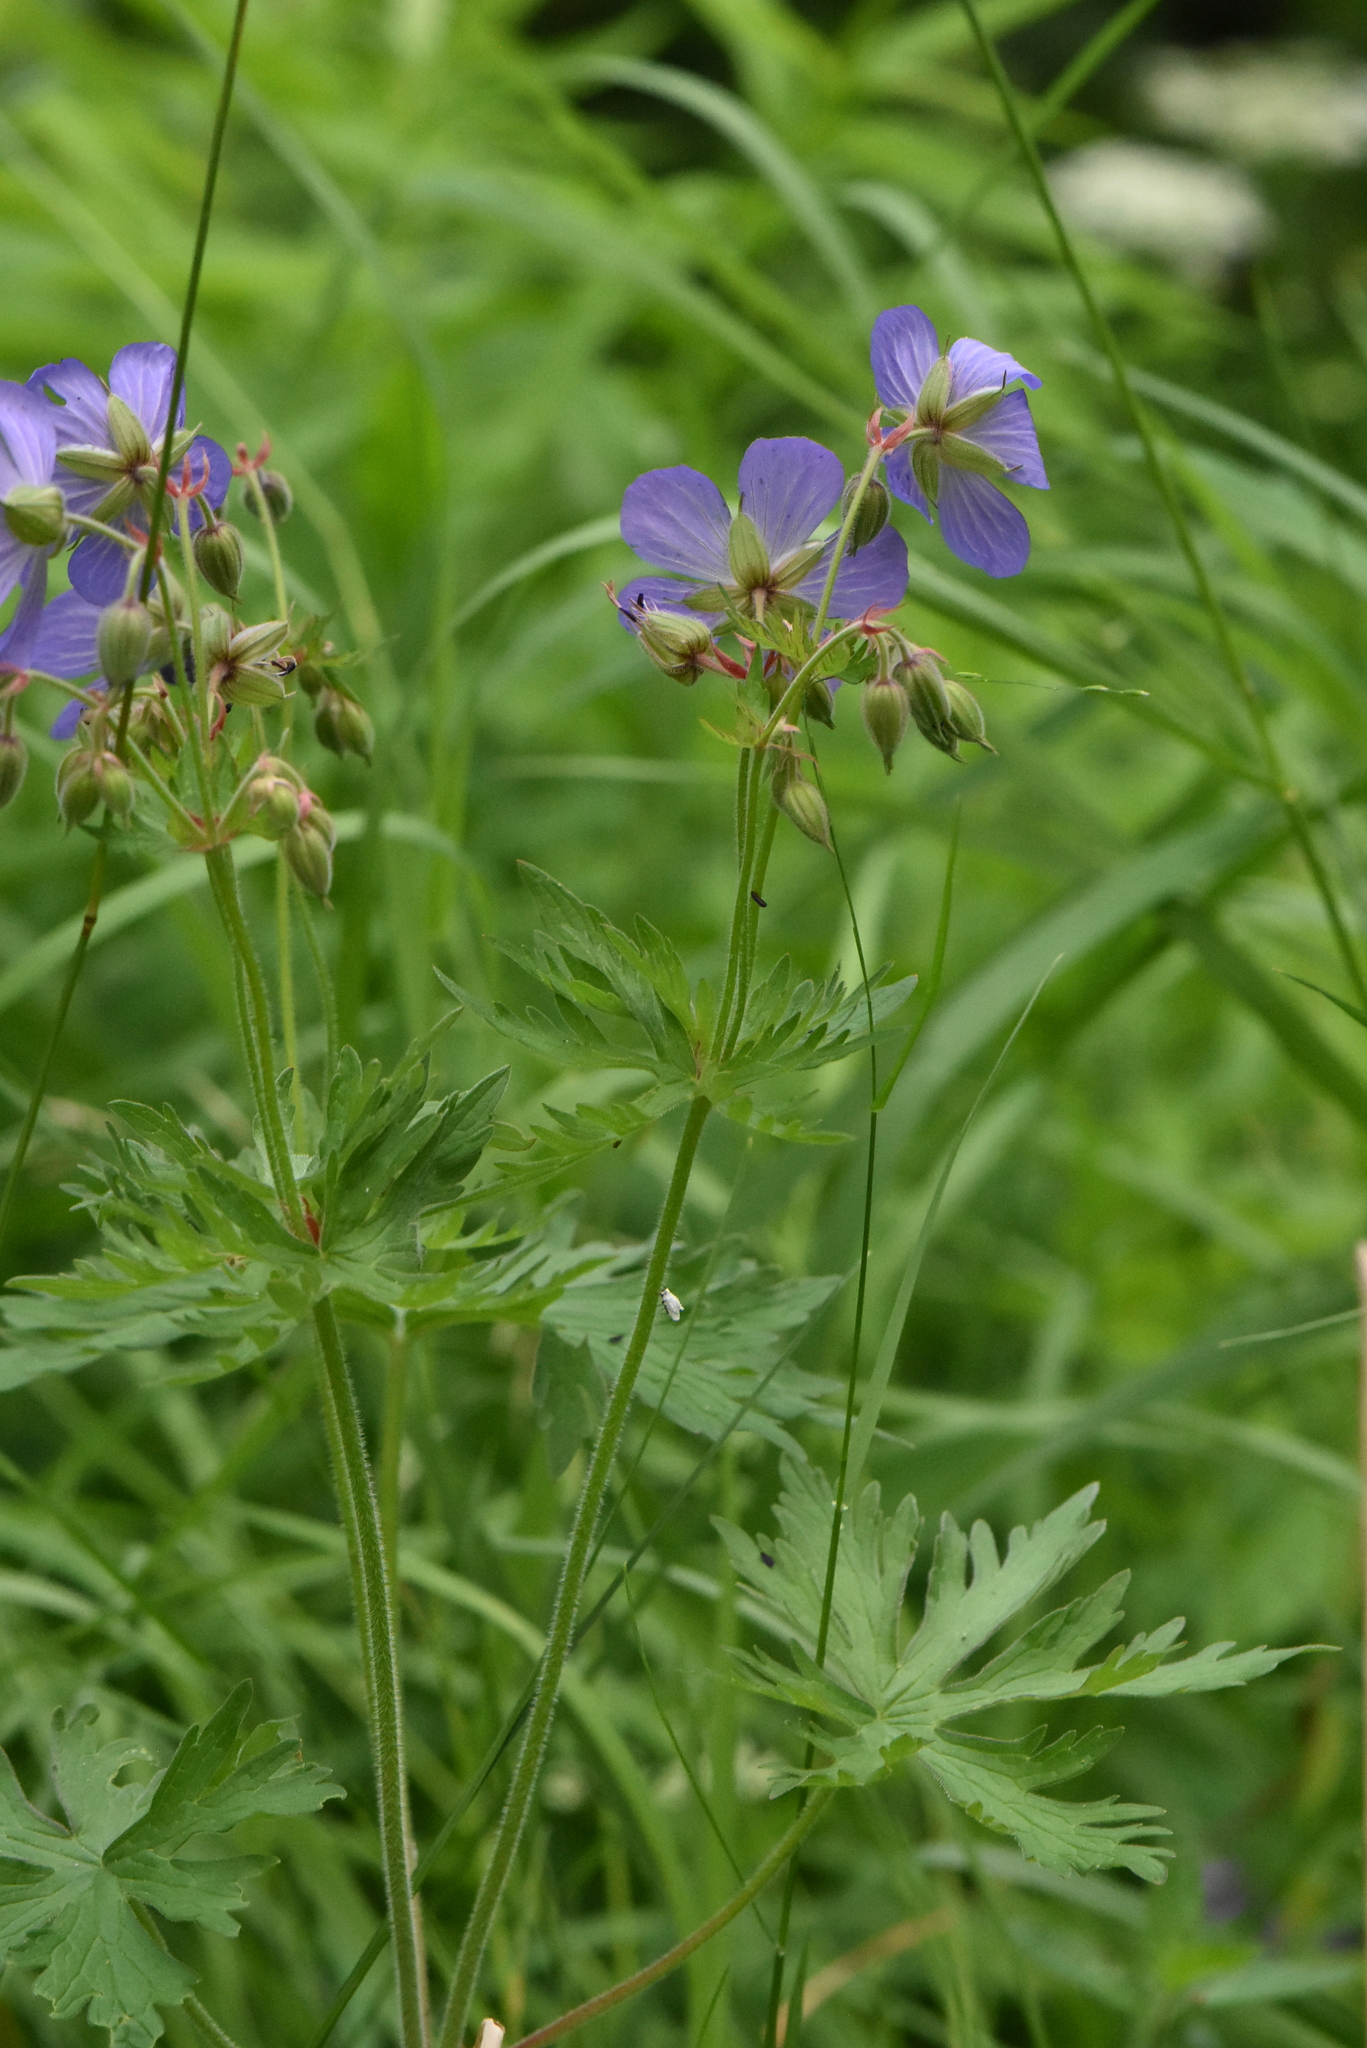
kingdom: Plantae
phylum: Tracheophyta
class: Magnoliopsida
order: Geraniales
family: Geraniaceae
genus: Geranium
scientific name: Geranium pratense
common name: Meadow crane's-bill
